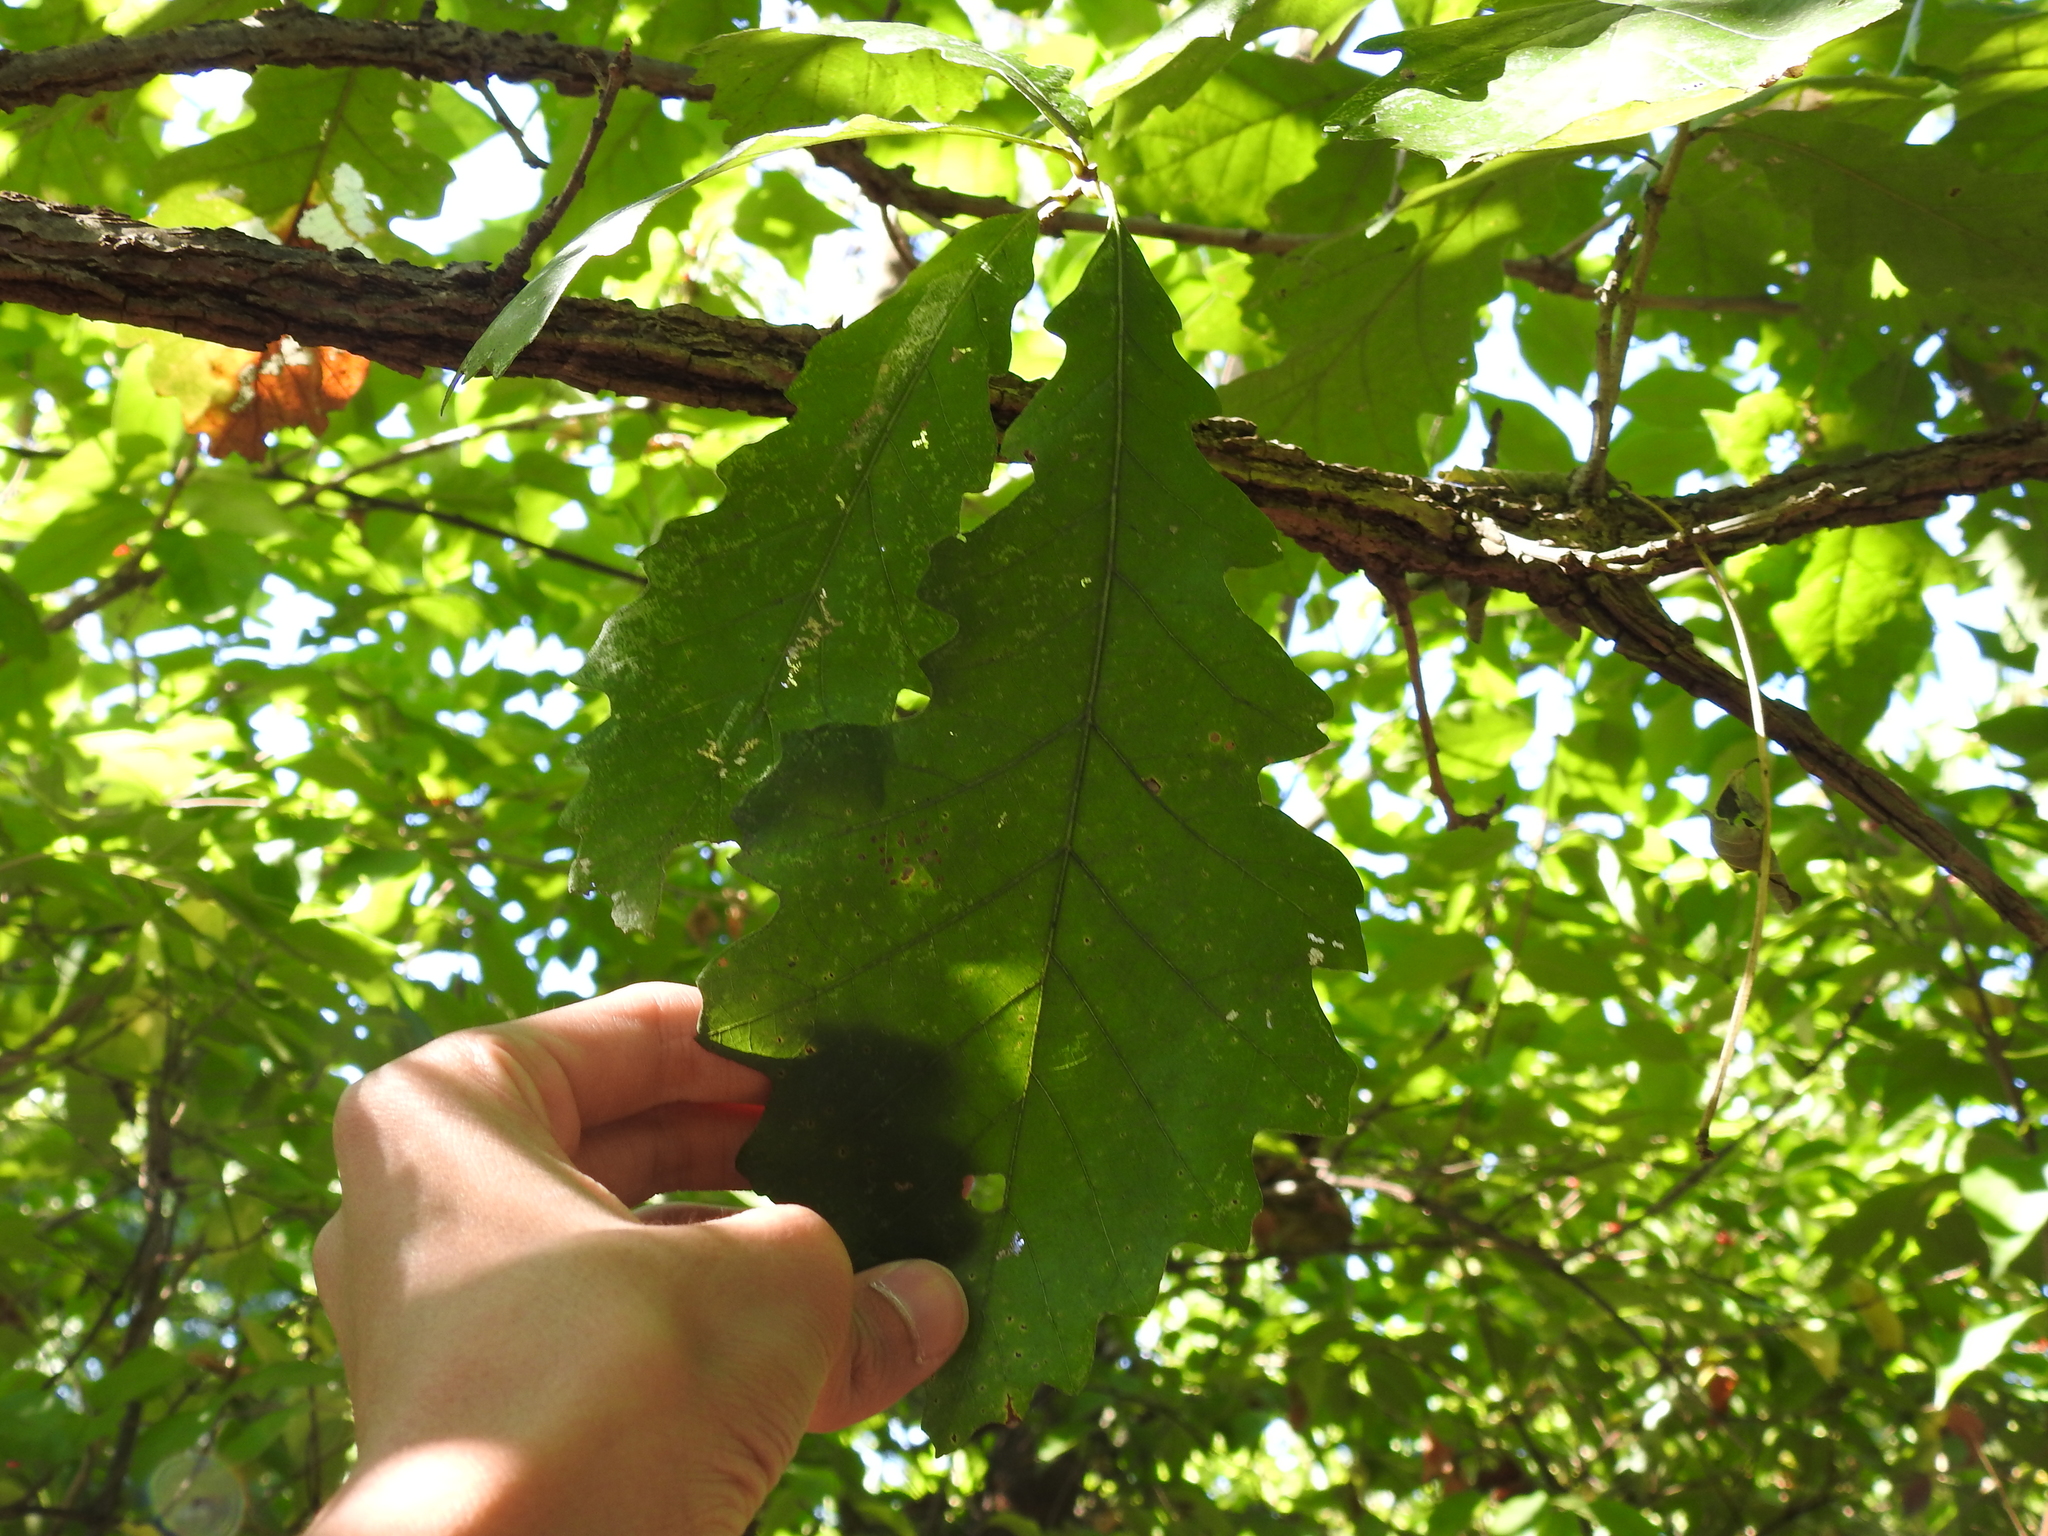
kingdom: Plantae
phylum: Tracheophyta
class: Magnoliopsida
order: Fagales
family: Fagaceae
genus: Quercus
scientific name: Quercus macrocarpa
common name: Bur oak
